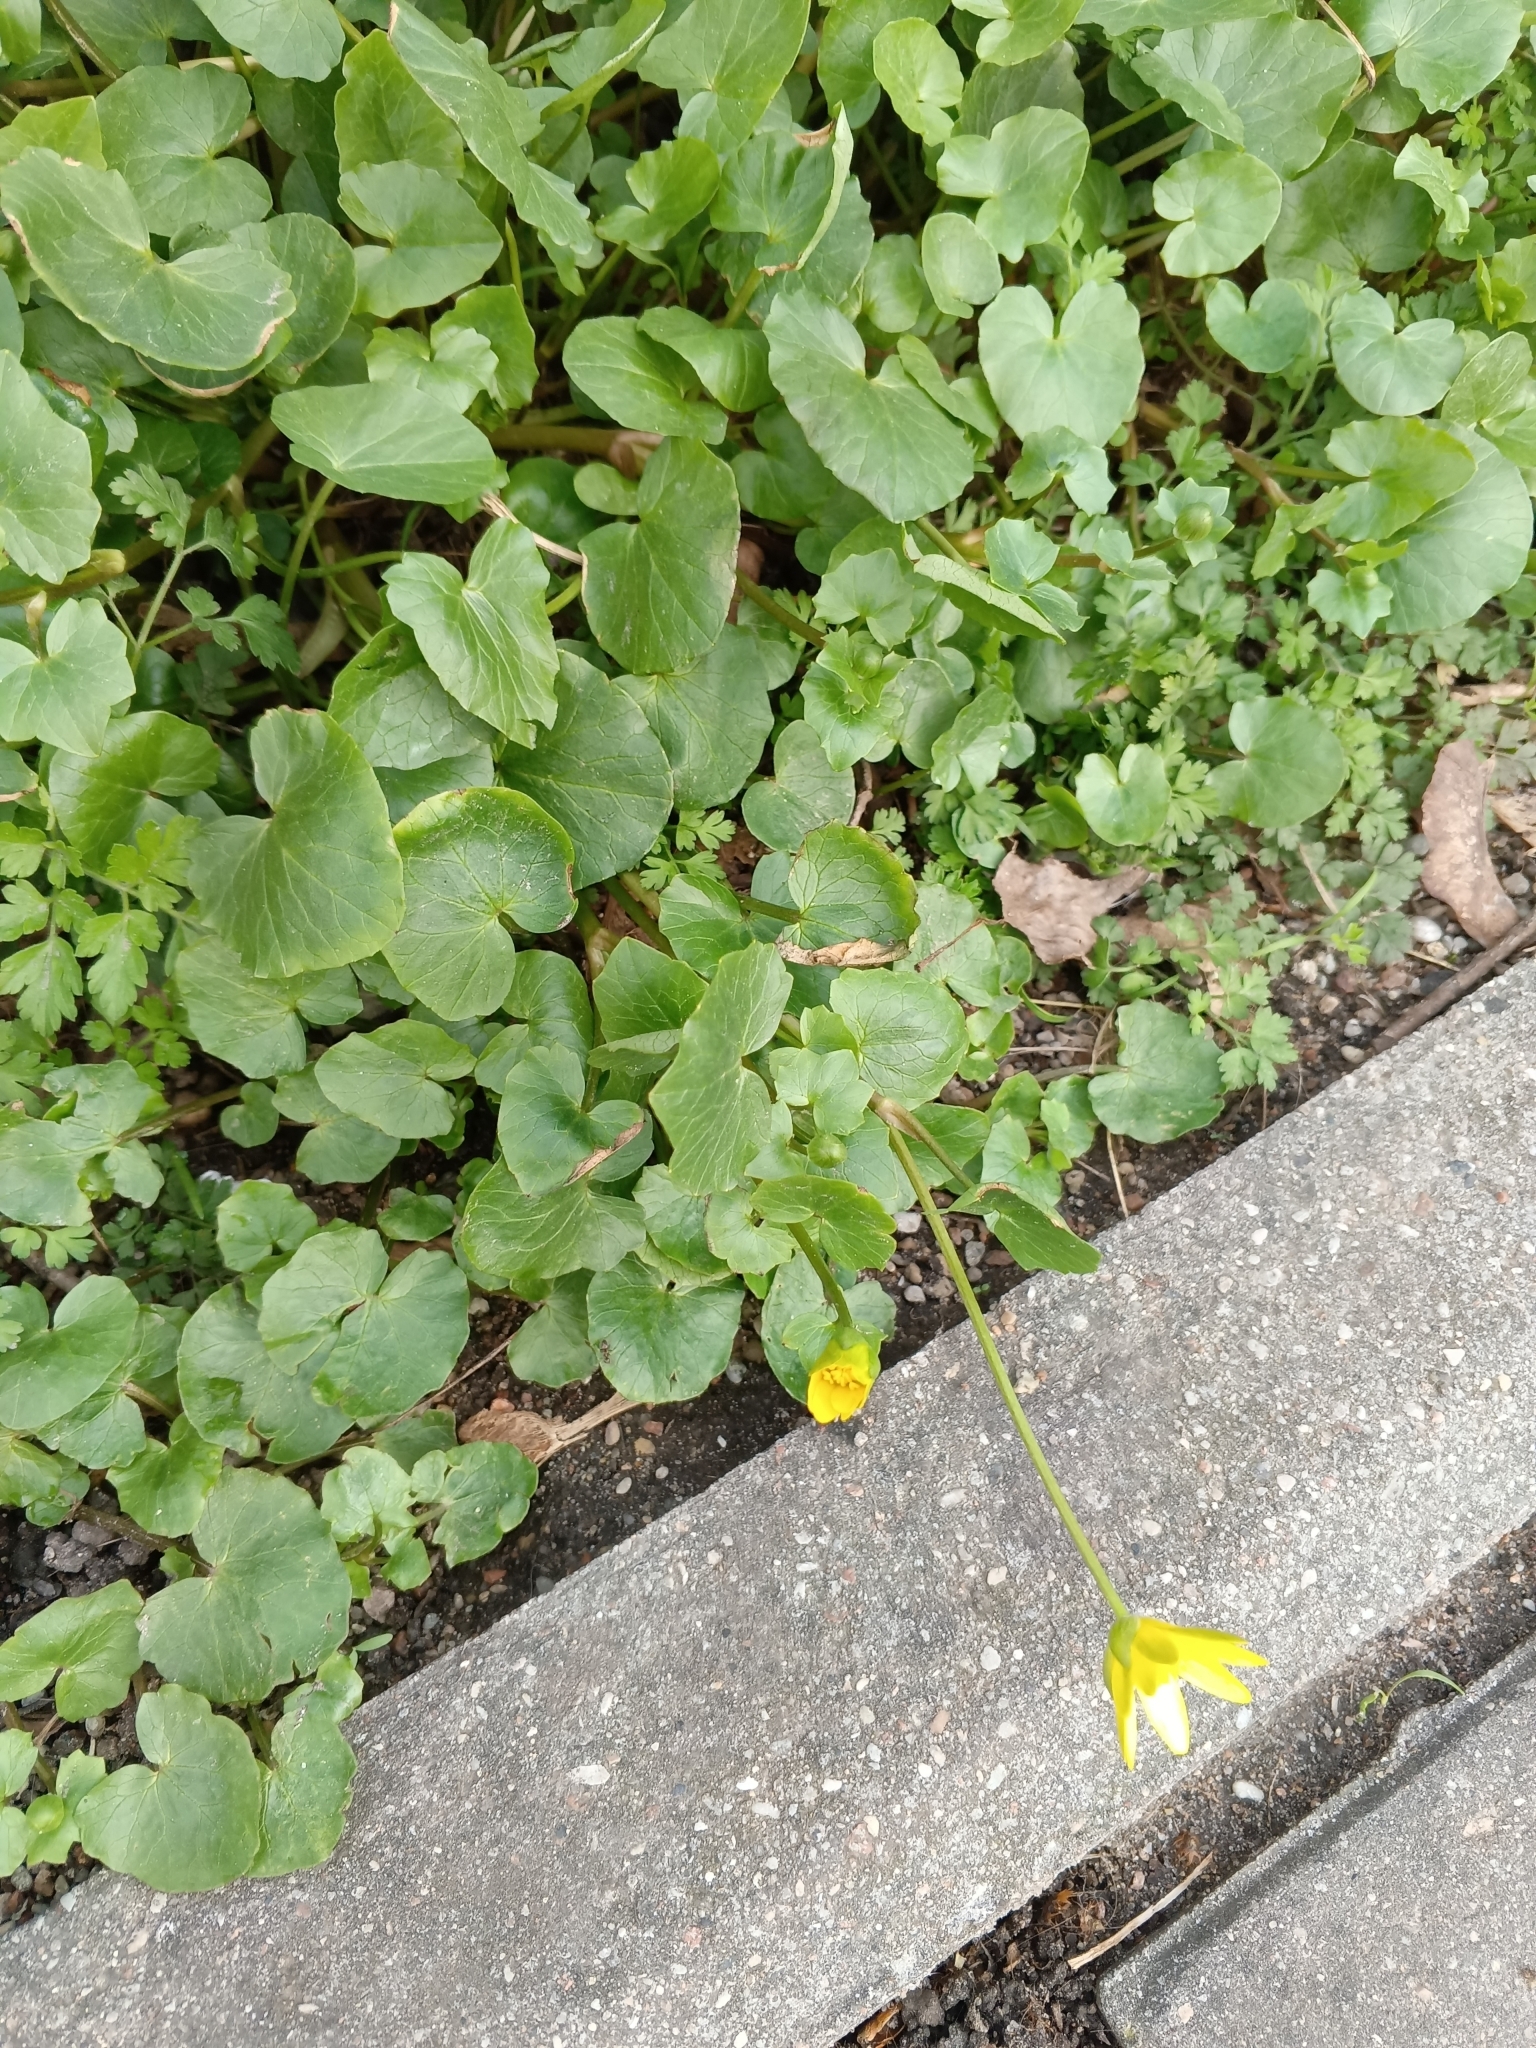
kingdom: Plantae
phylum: Tracheophyta
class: Magnoliopsida
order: Ranunculales
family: Ranunculaceae
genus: Ficaria
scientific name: Ficaria verna
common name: Lesser celandine
